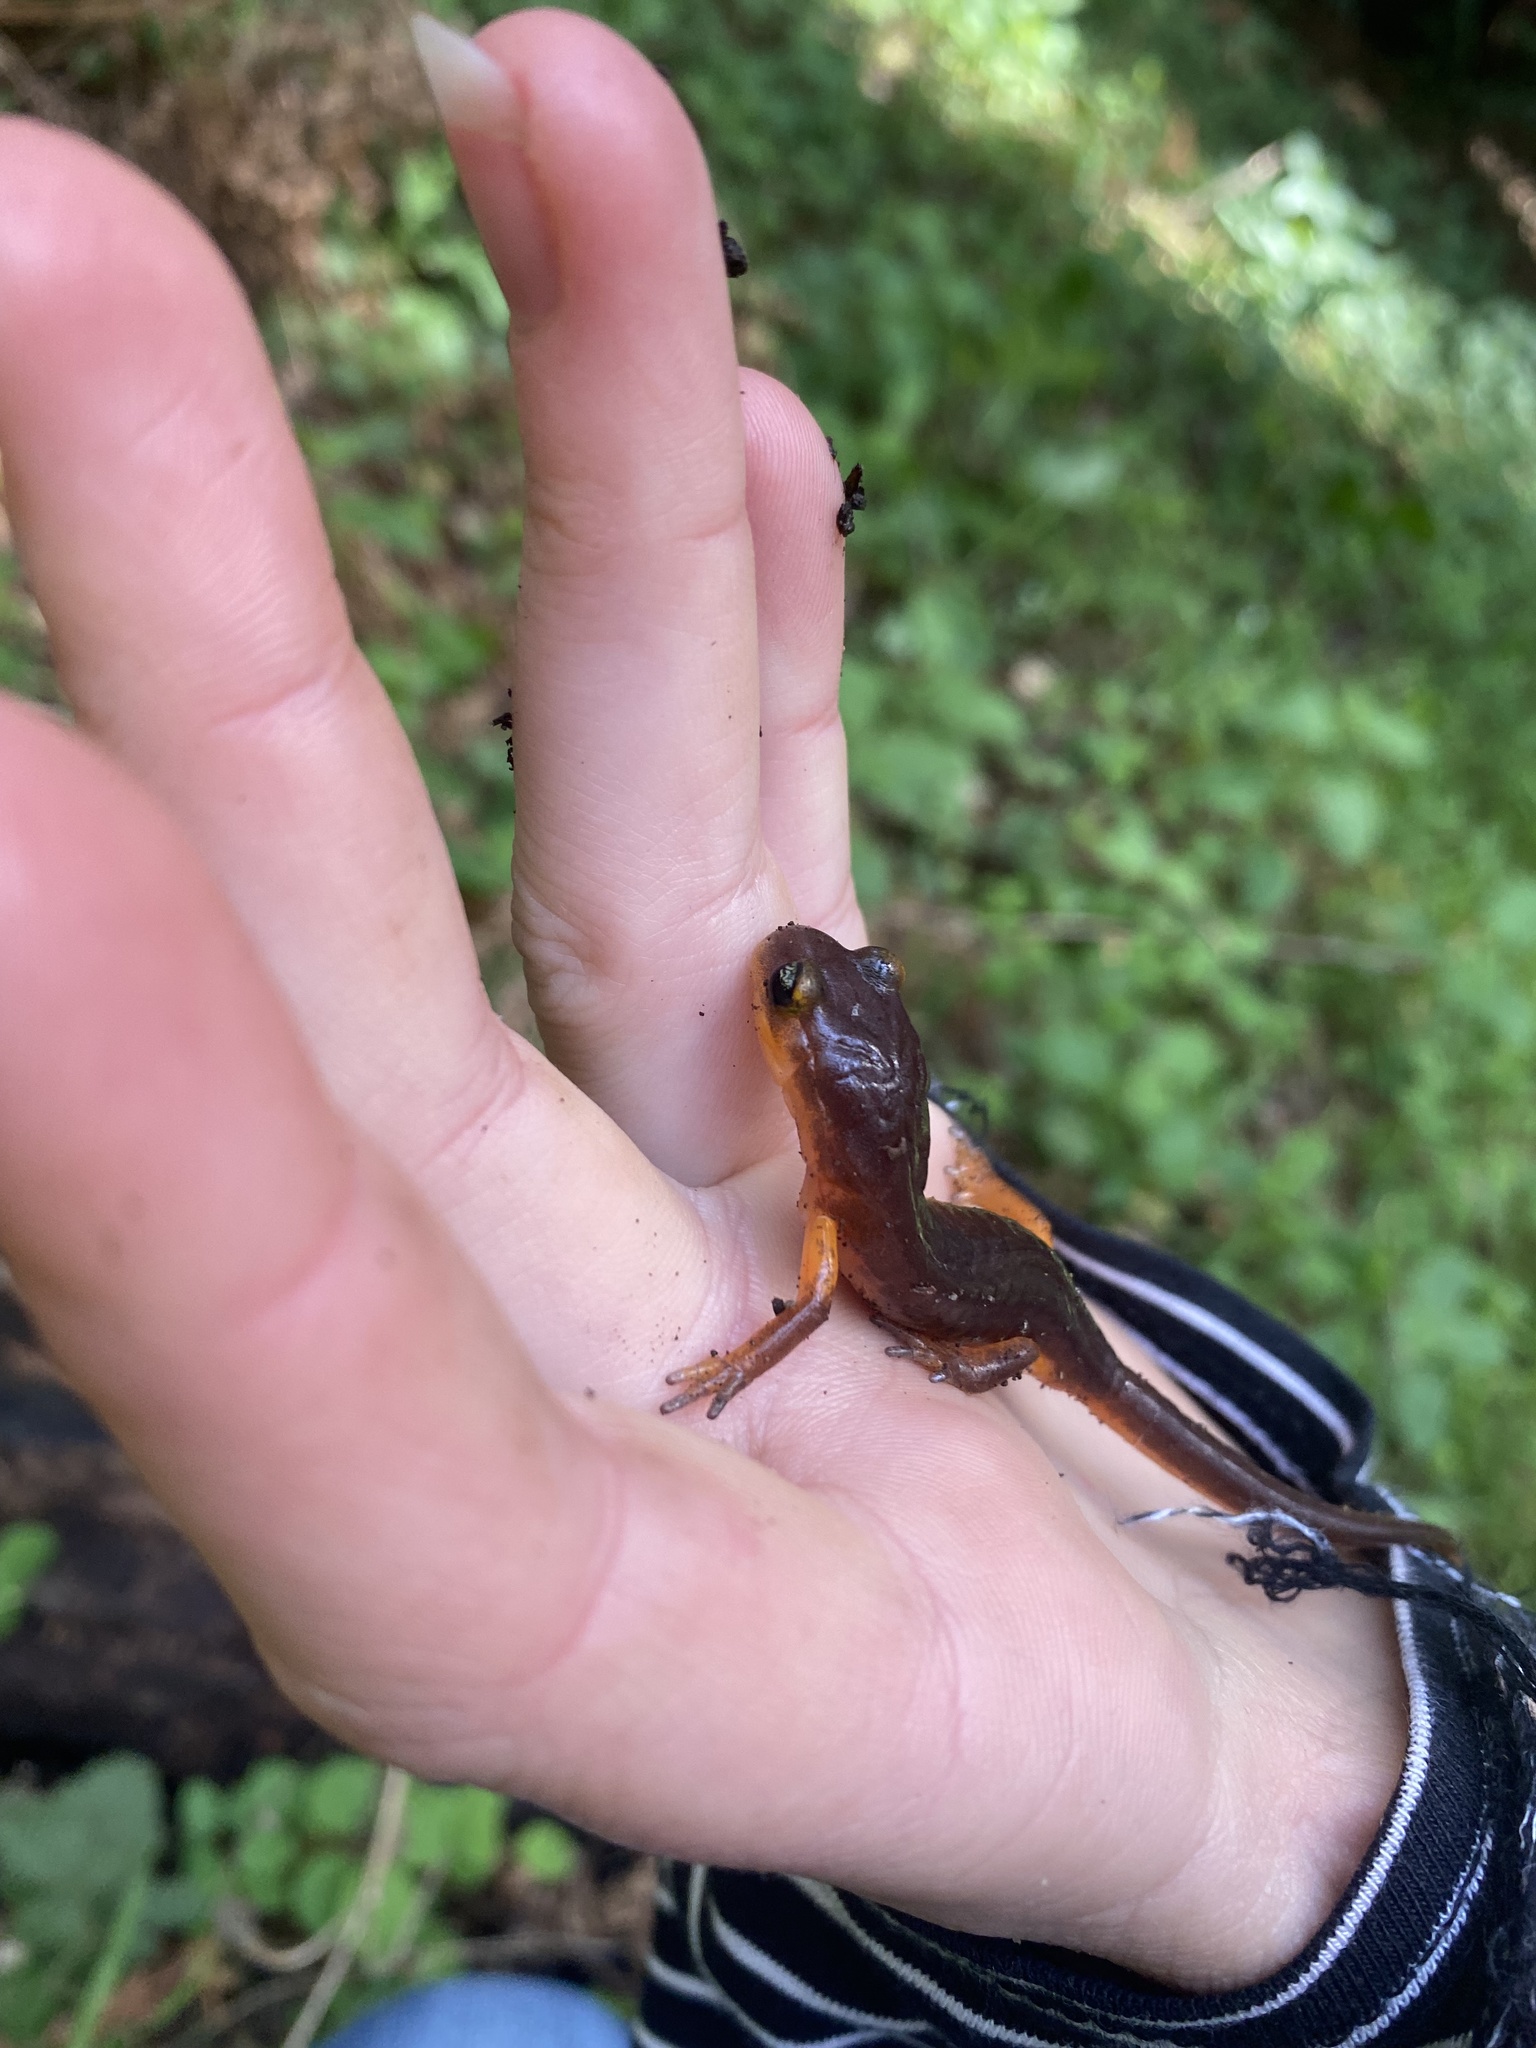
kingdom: Animalia
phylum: Chordata
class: Amphibia
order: Caudata
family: Plethodontidae
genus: Ensatina
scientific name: Ensatina eschscholtzii
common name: Ensatina
